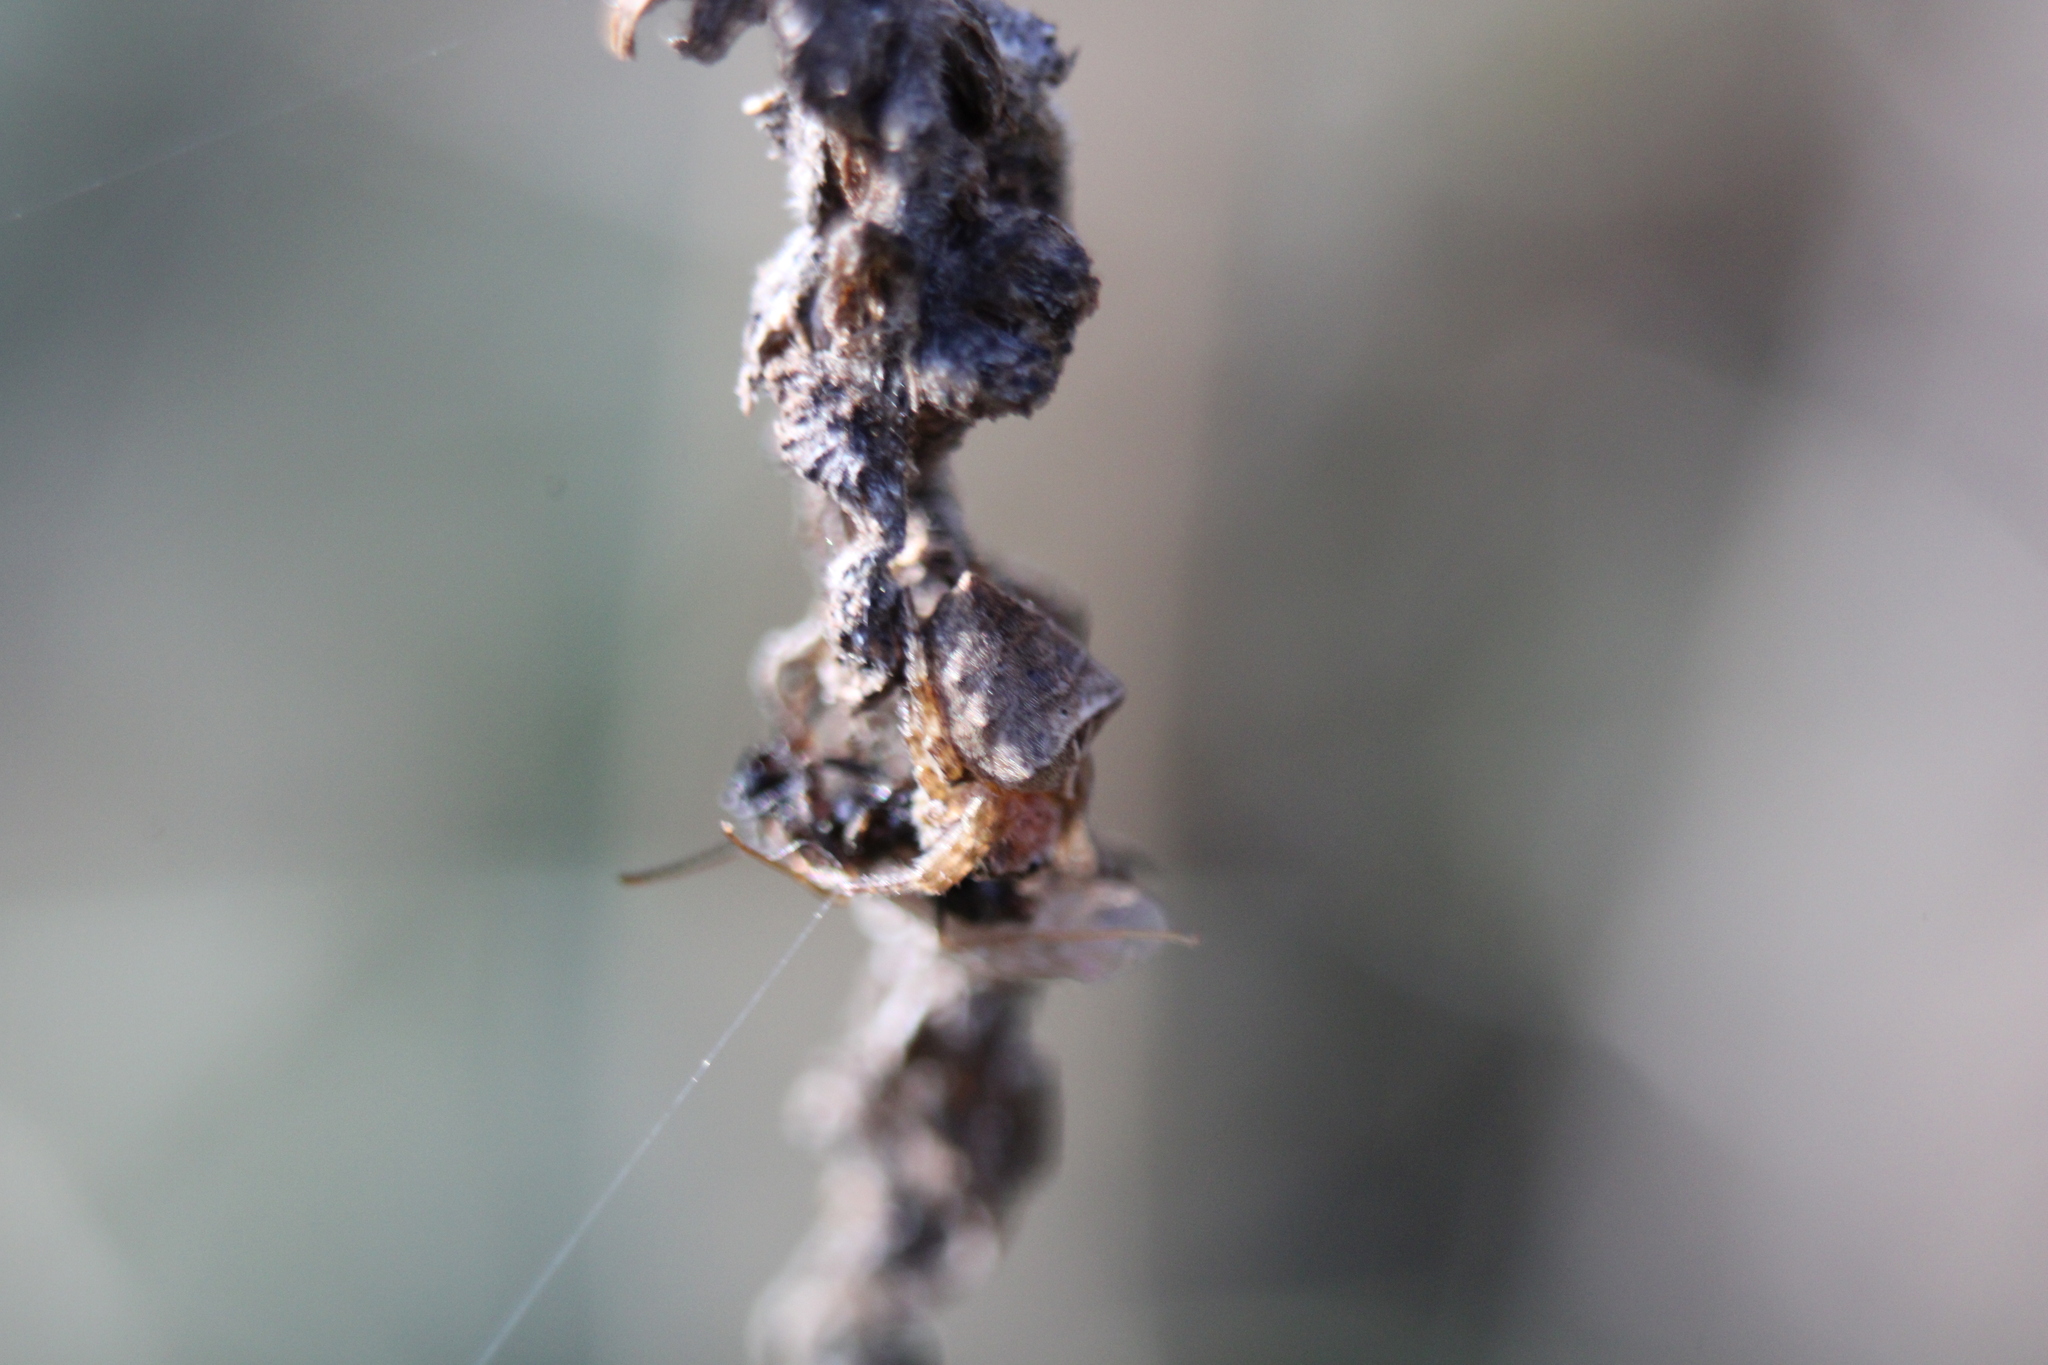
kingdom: Animalia
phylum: Arthropoda
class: Arachnida
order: Araneae
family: Araneidae
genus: Acanthepeira
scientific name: Acanthepeira stellata
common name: Starbellied orbweaver
